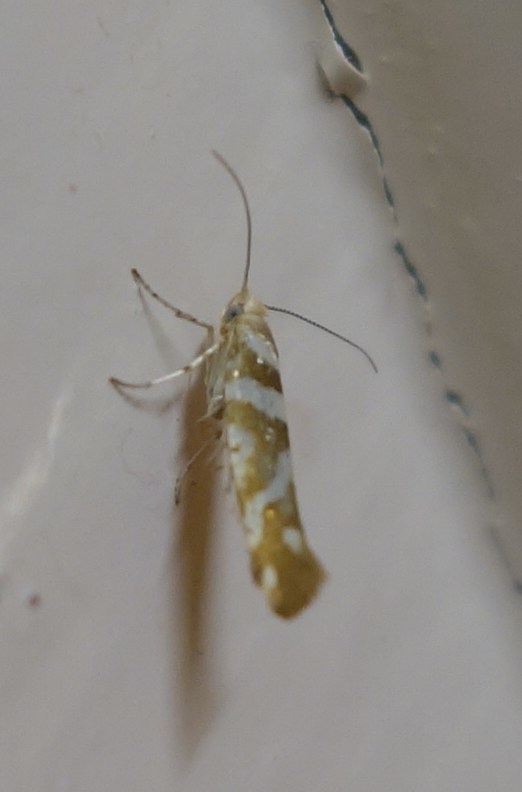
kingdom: Animalia
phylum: Arthropoda
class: Insecta
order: Lepidoptera
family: Argyresthiidae
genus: Argyresthia
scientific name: Argyresthia goedartella
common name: Golden argent
